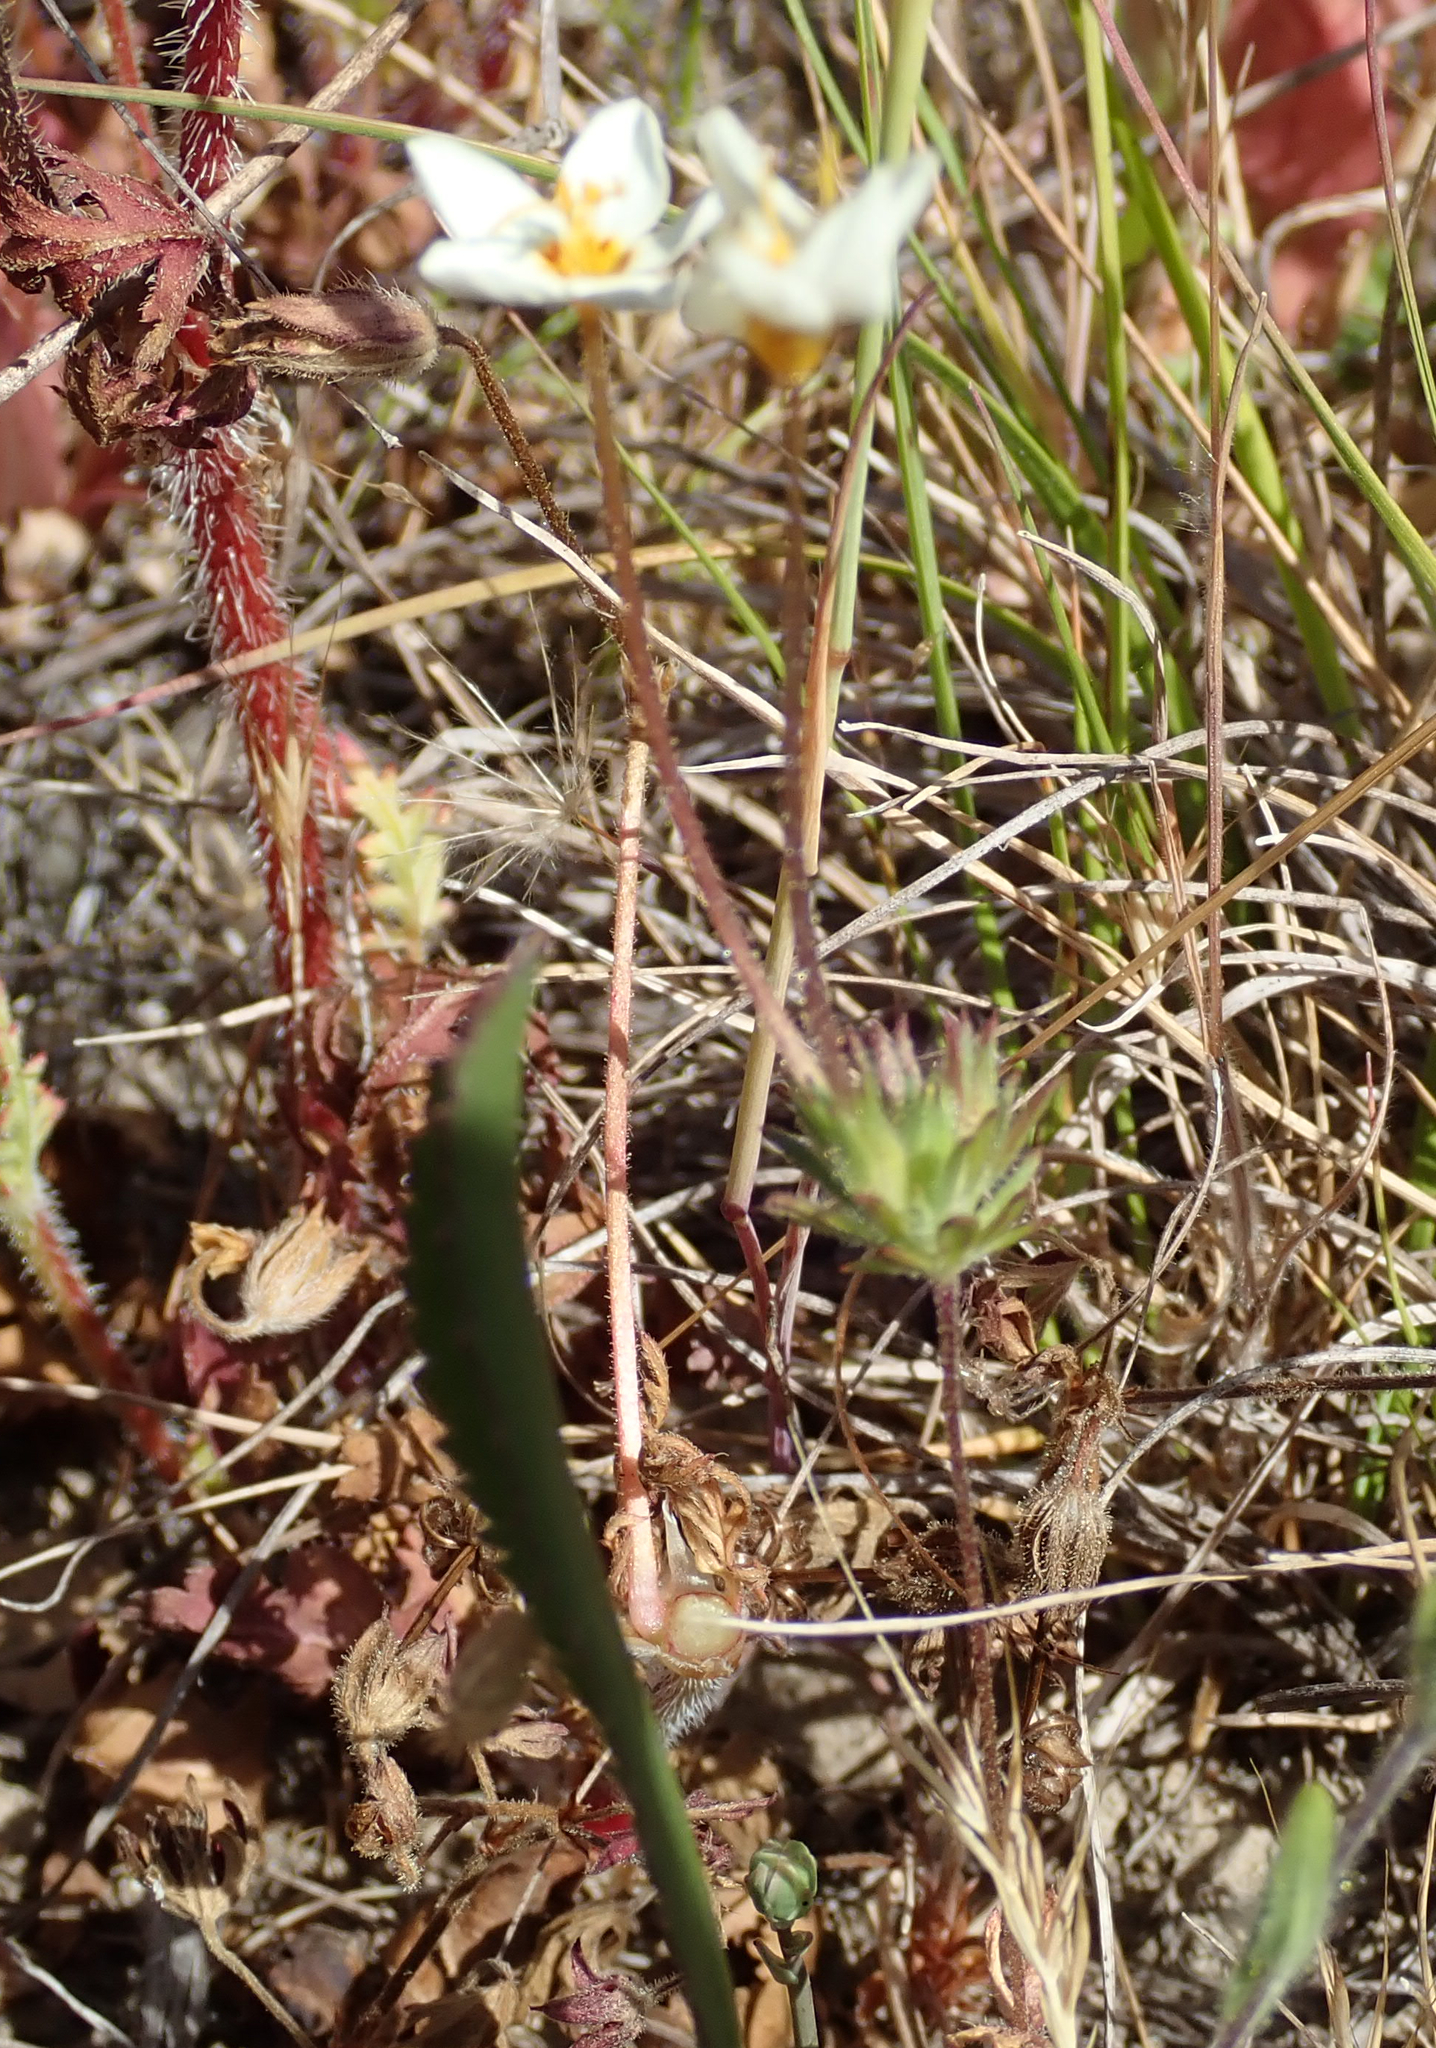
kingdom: Plantae
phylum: Tracheophyta
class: Magnoliopsida
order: Ericales
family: Polemoniaceae
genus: Leptosiphon
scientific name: Leptosiphon parviflorus
